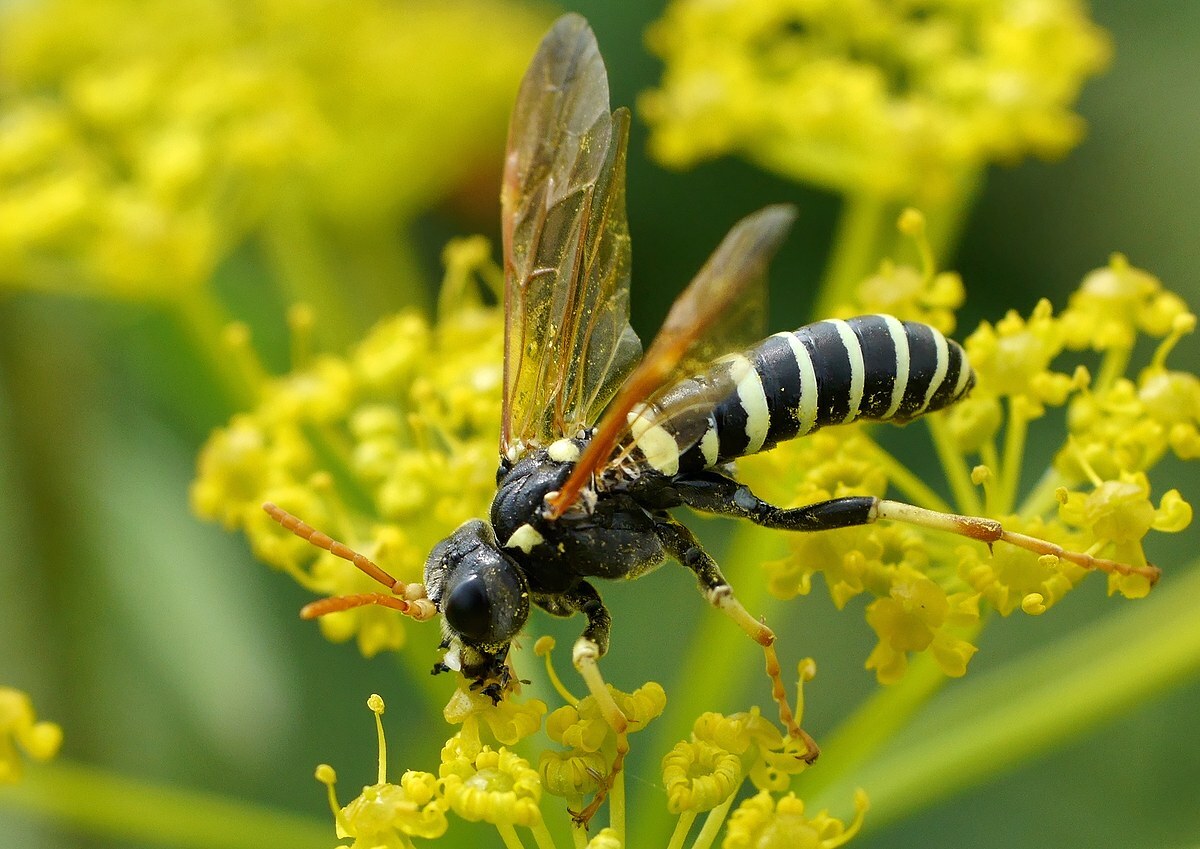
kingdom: Animalia
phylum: Arthropoda
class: Insecta
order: Hymenoptera
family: Tenthredinidae
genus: Tenthredo
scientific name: Tenthredo excellens
